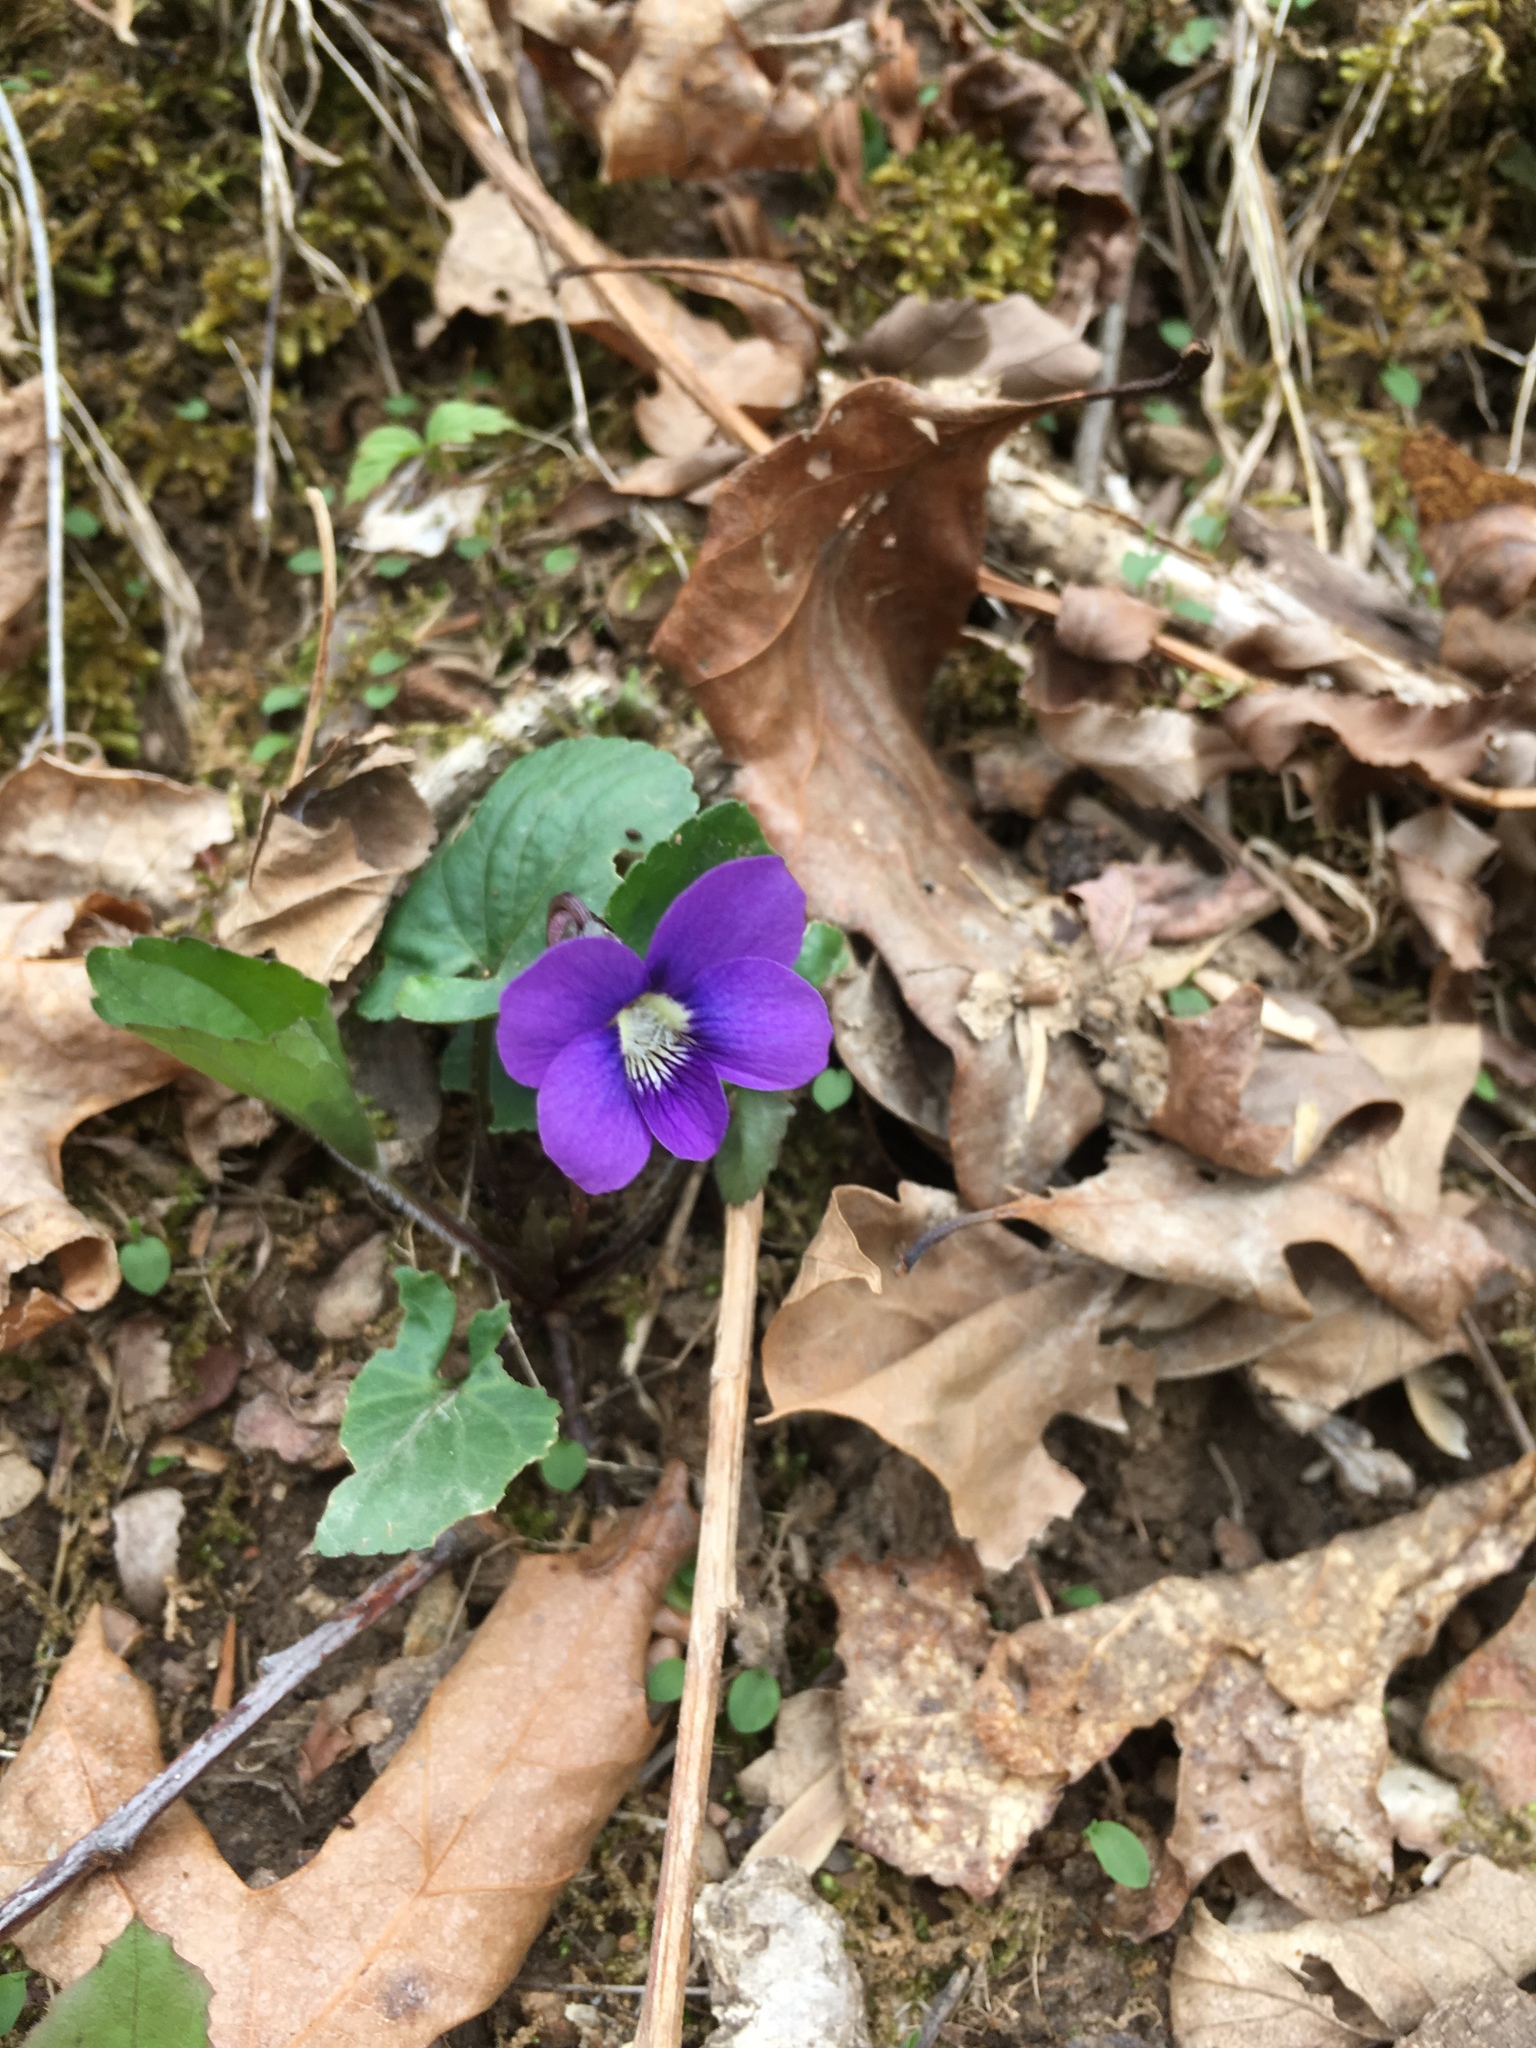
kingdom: Plantae
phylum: Tracheophyta
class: Magnoliopsida
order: Malpighiales
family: Violaceae
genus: Viola
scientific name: Viola sororia
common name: Dooryard violet
